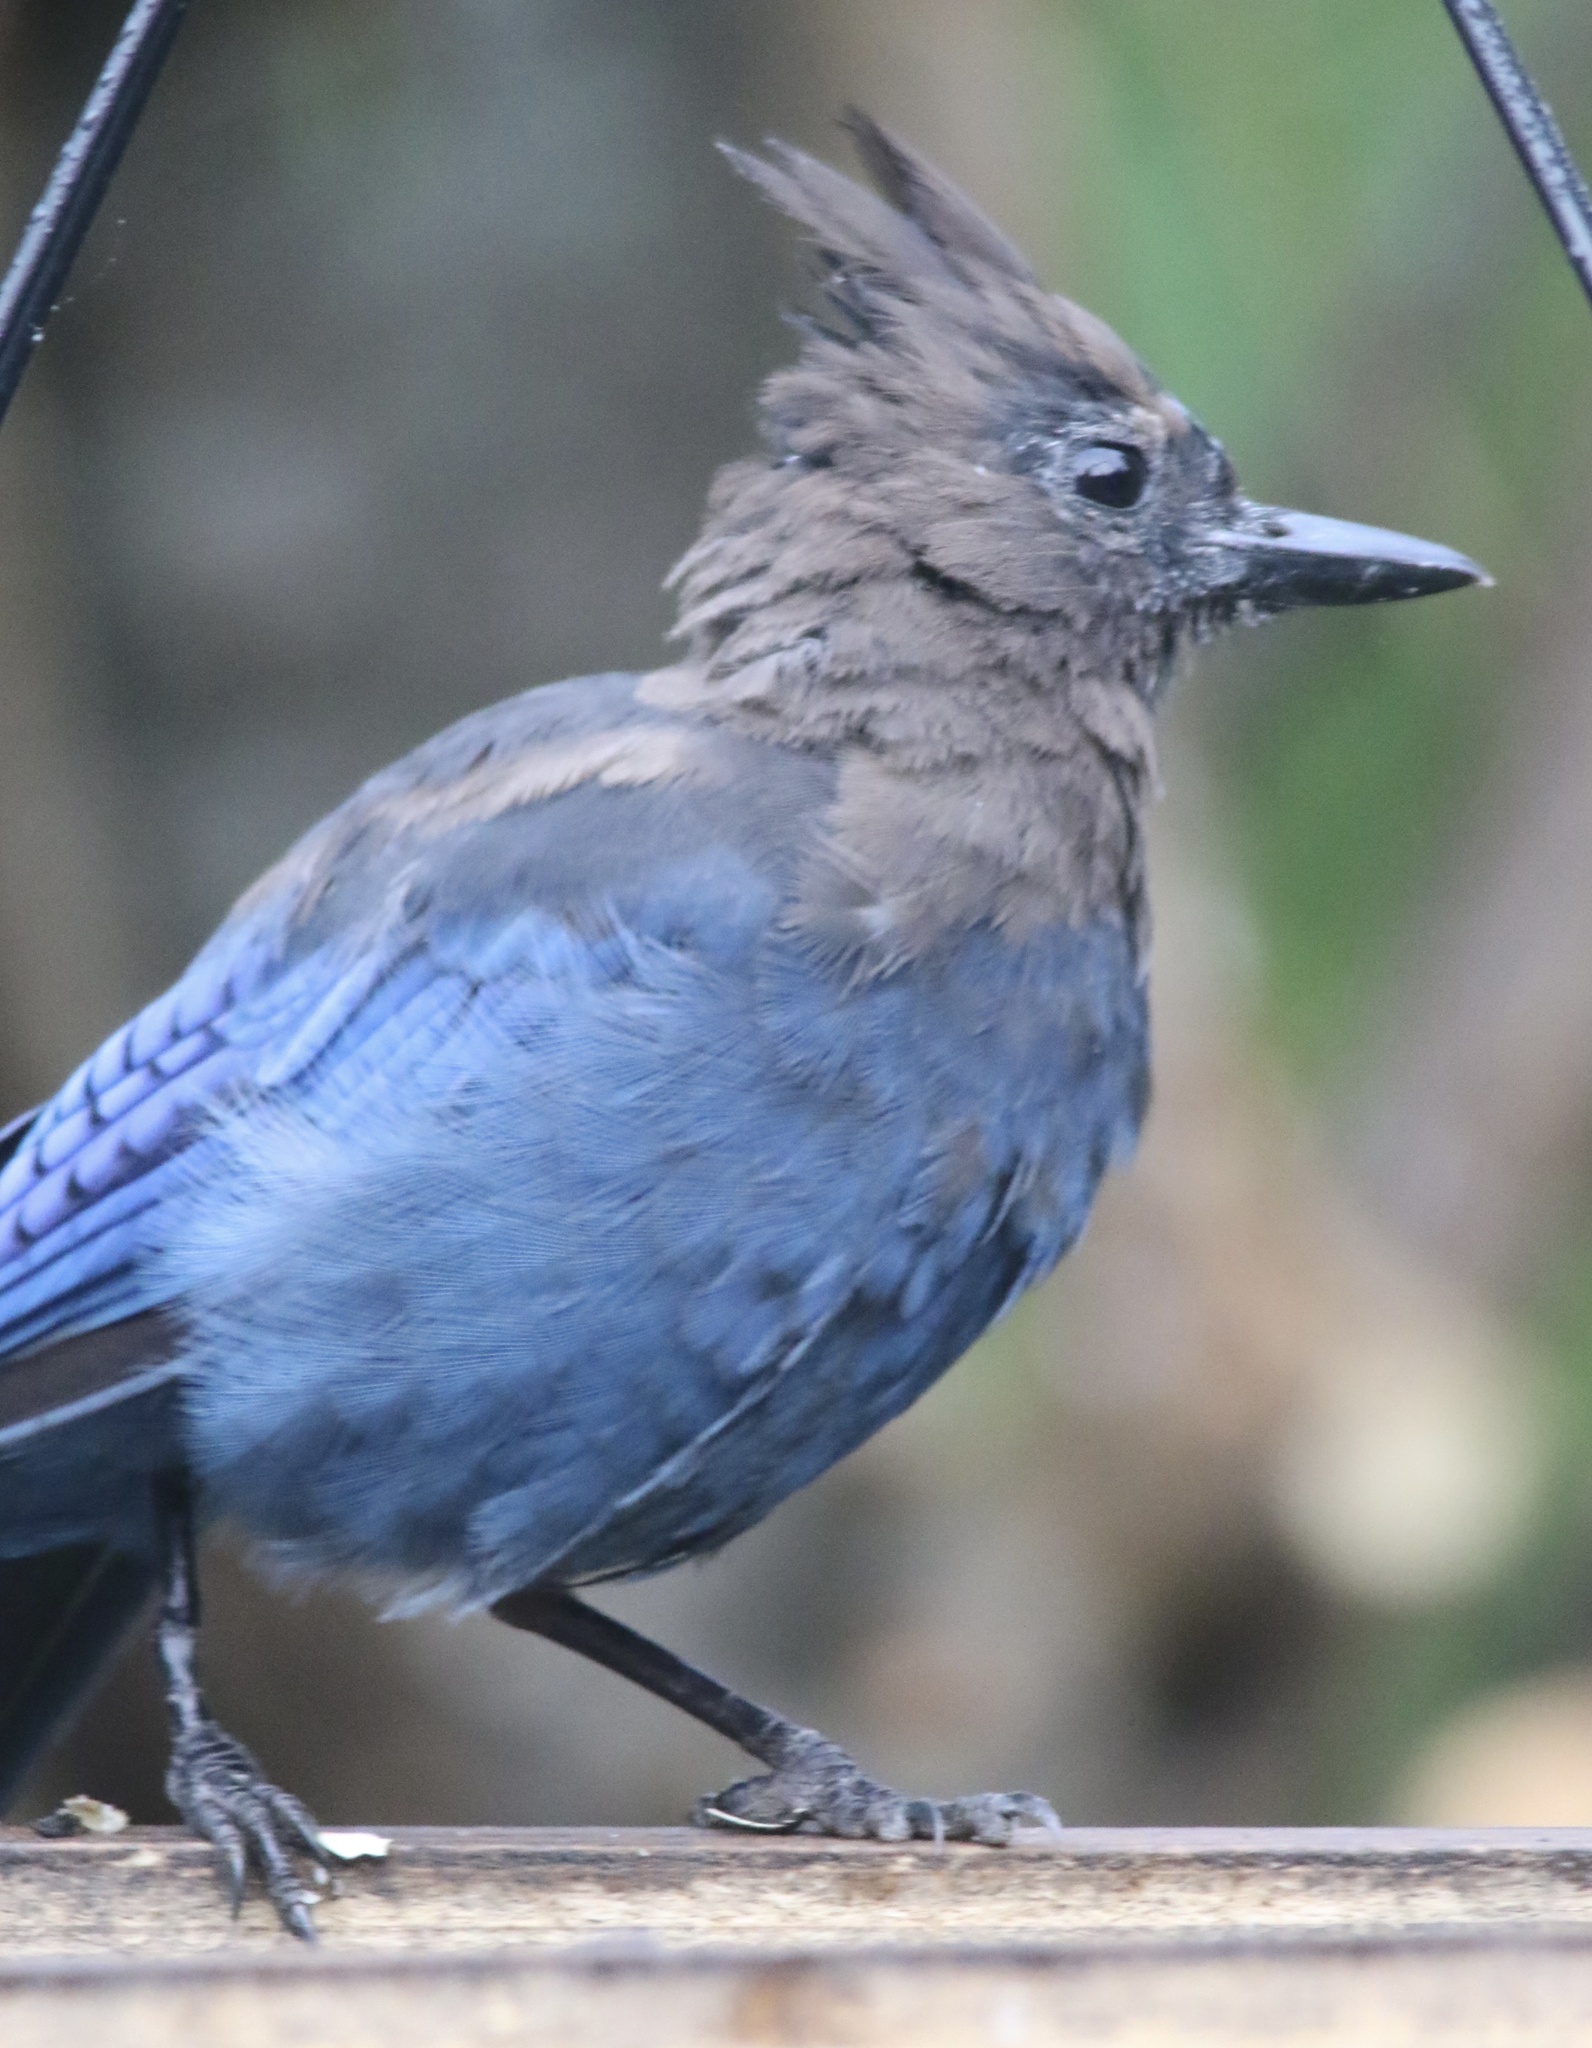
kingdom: Animalia
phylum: Chordata
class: Aves
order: Passeriformes
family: Corvidae
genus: Cyanocitta
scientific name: Cyanocitta stelleri
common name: Steller's jay
